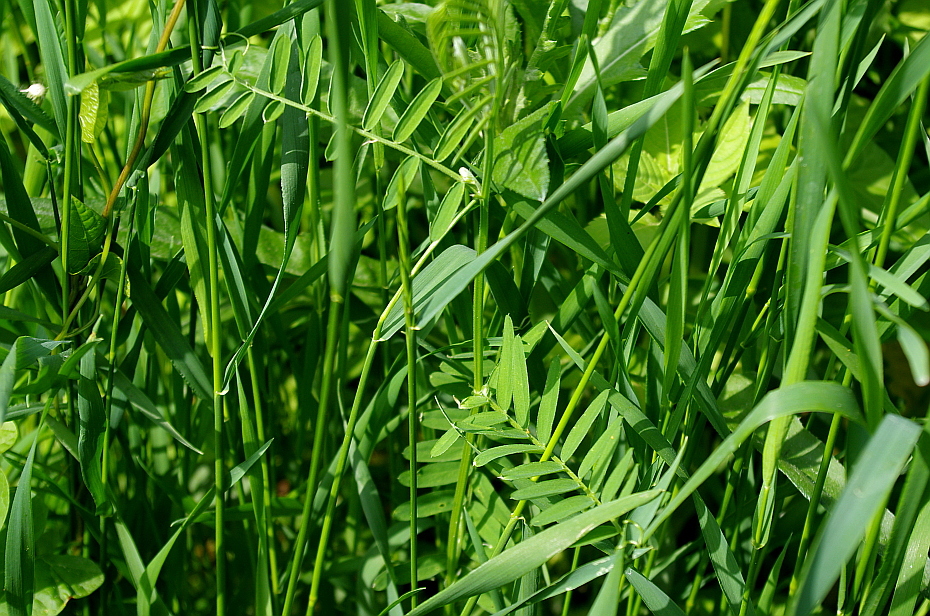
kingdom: Plantae
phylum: Tracheophyta
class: Magnoliopsida
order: Fabales
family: Fabaceae
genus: Vicia
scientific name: Vicia cracca
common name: Bird vetch
